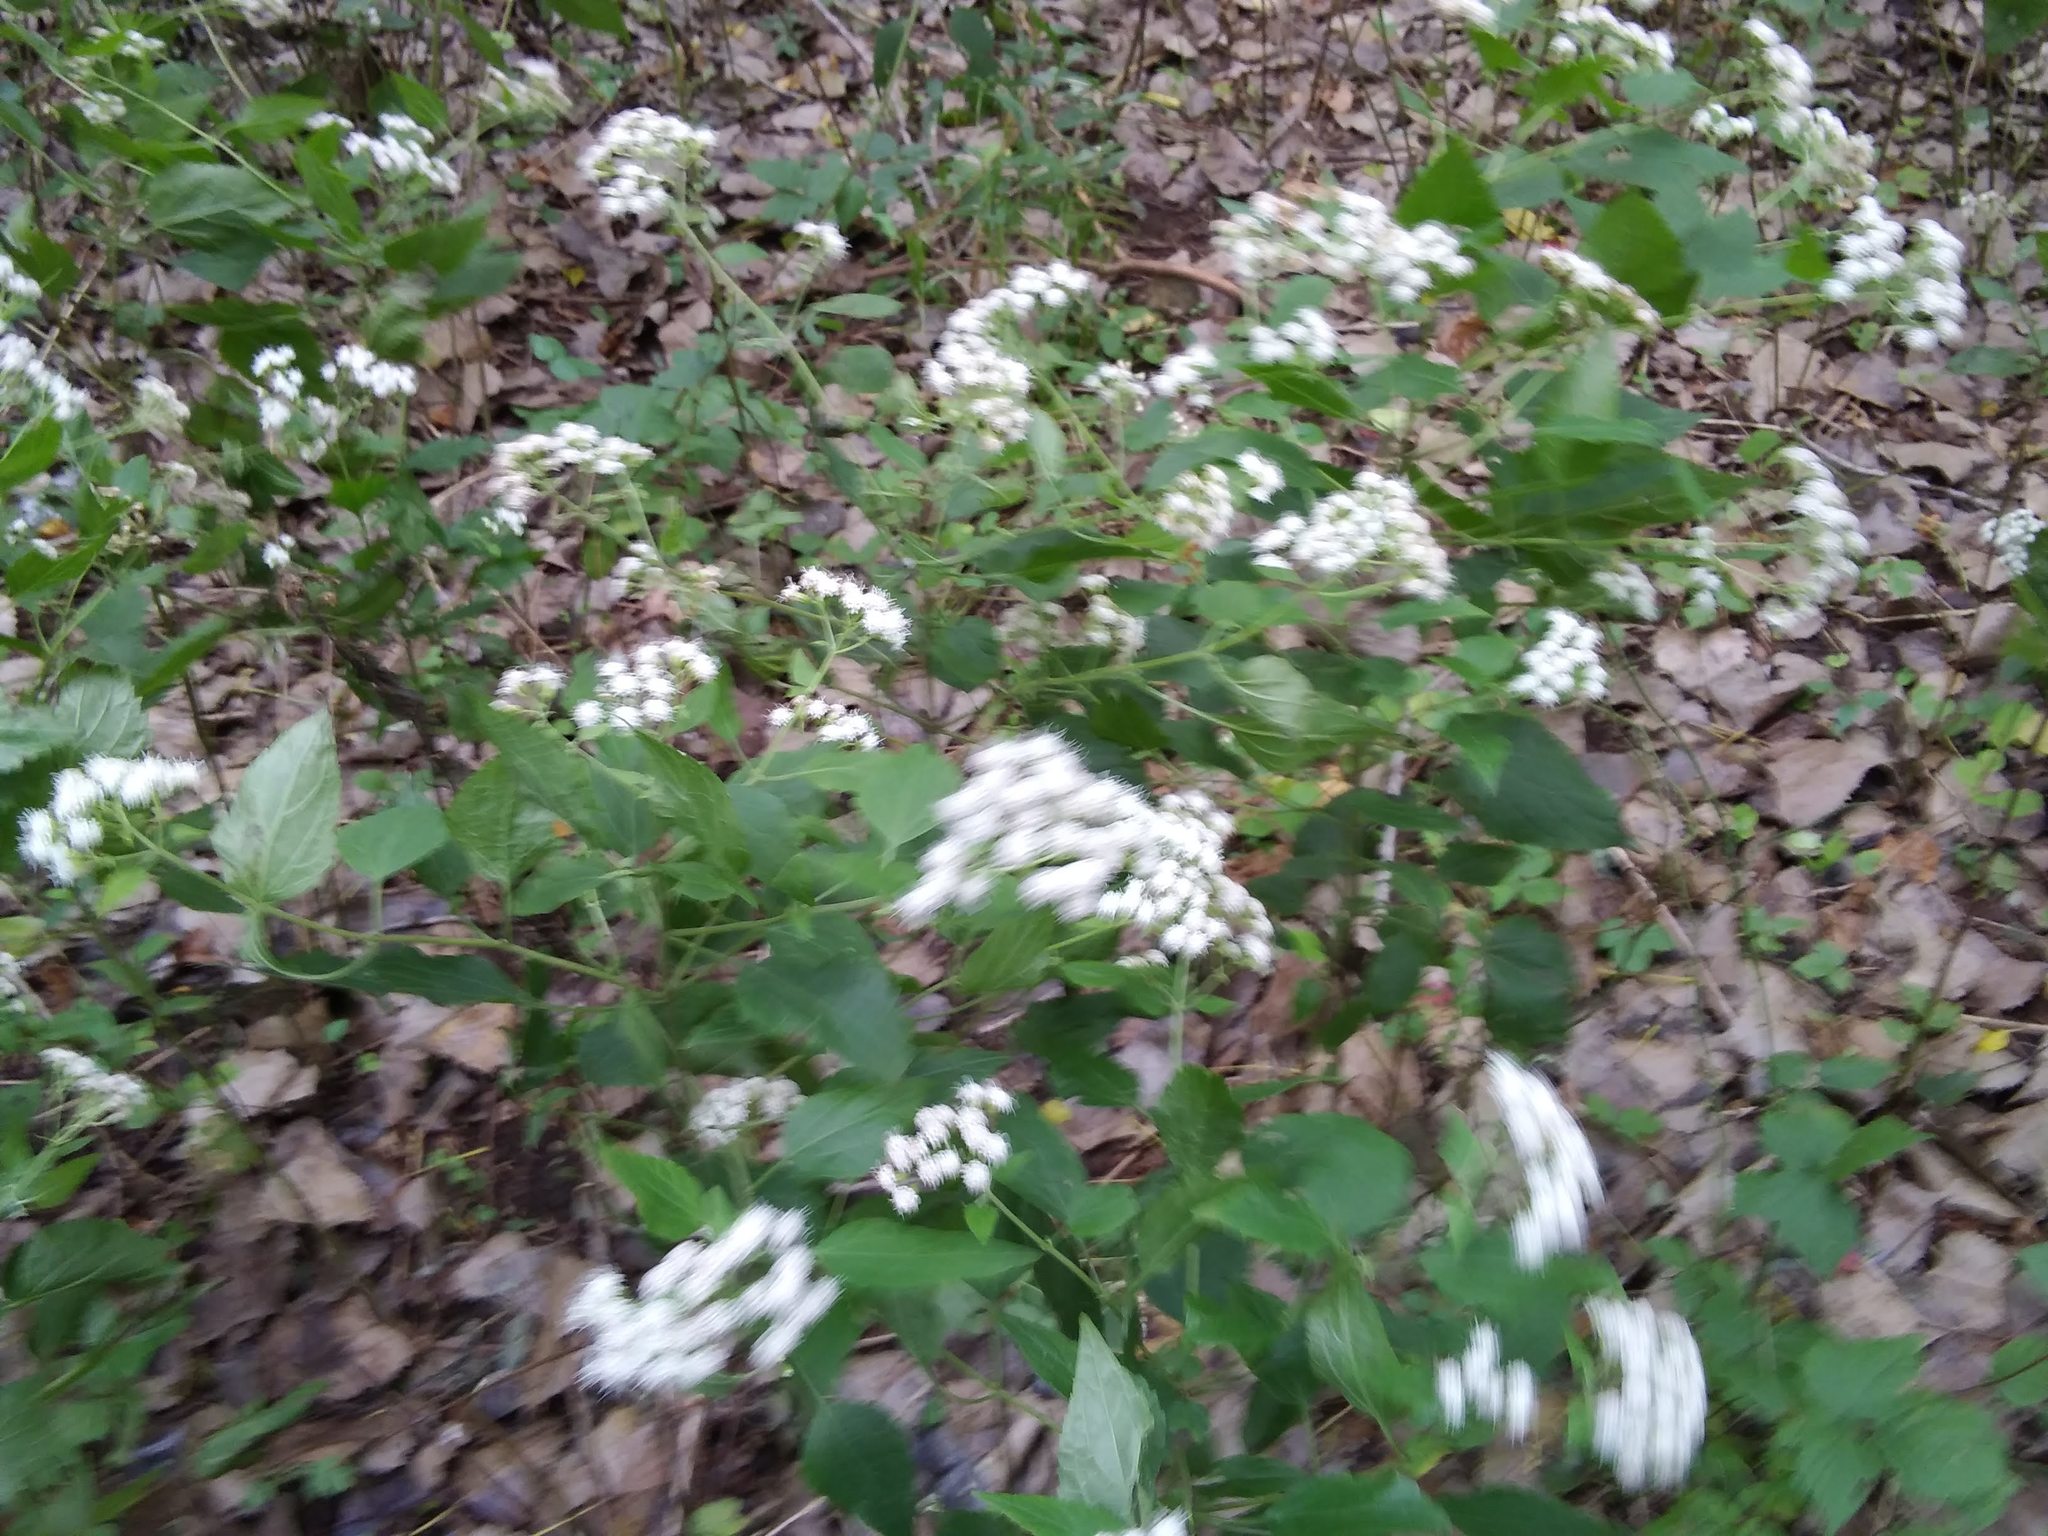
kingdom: Plantae
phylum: Tracheophyta
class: Magnoliopsida
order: Asterales
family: Asteraceae
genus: Ageratina
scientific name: Ageratina altissima
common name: White snakeroot
